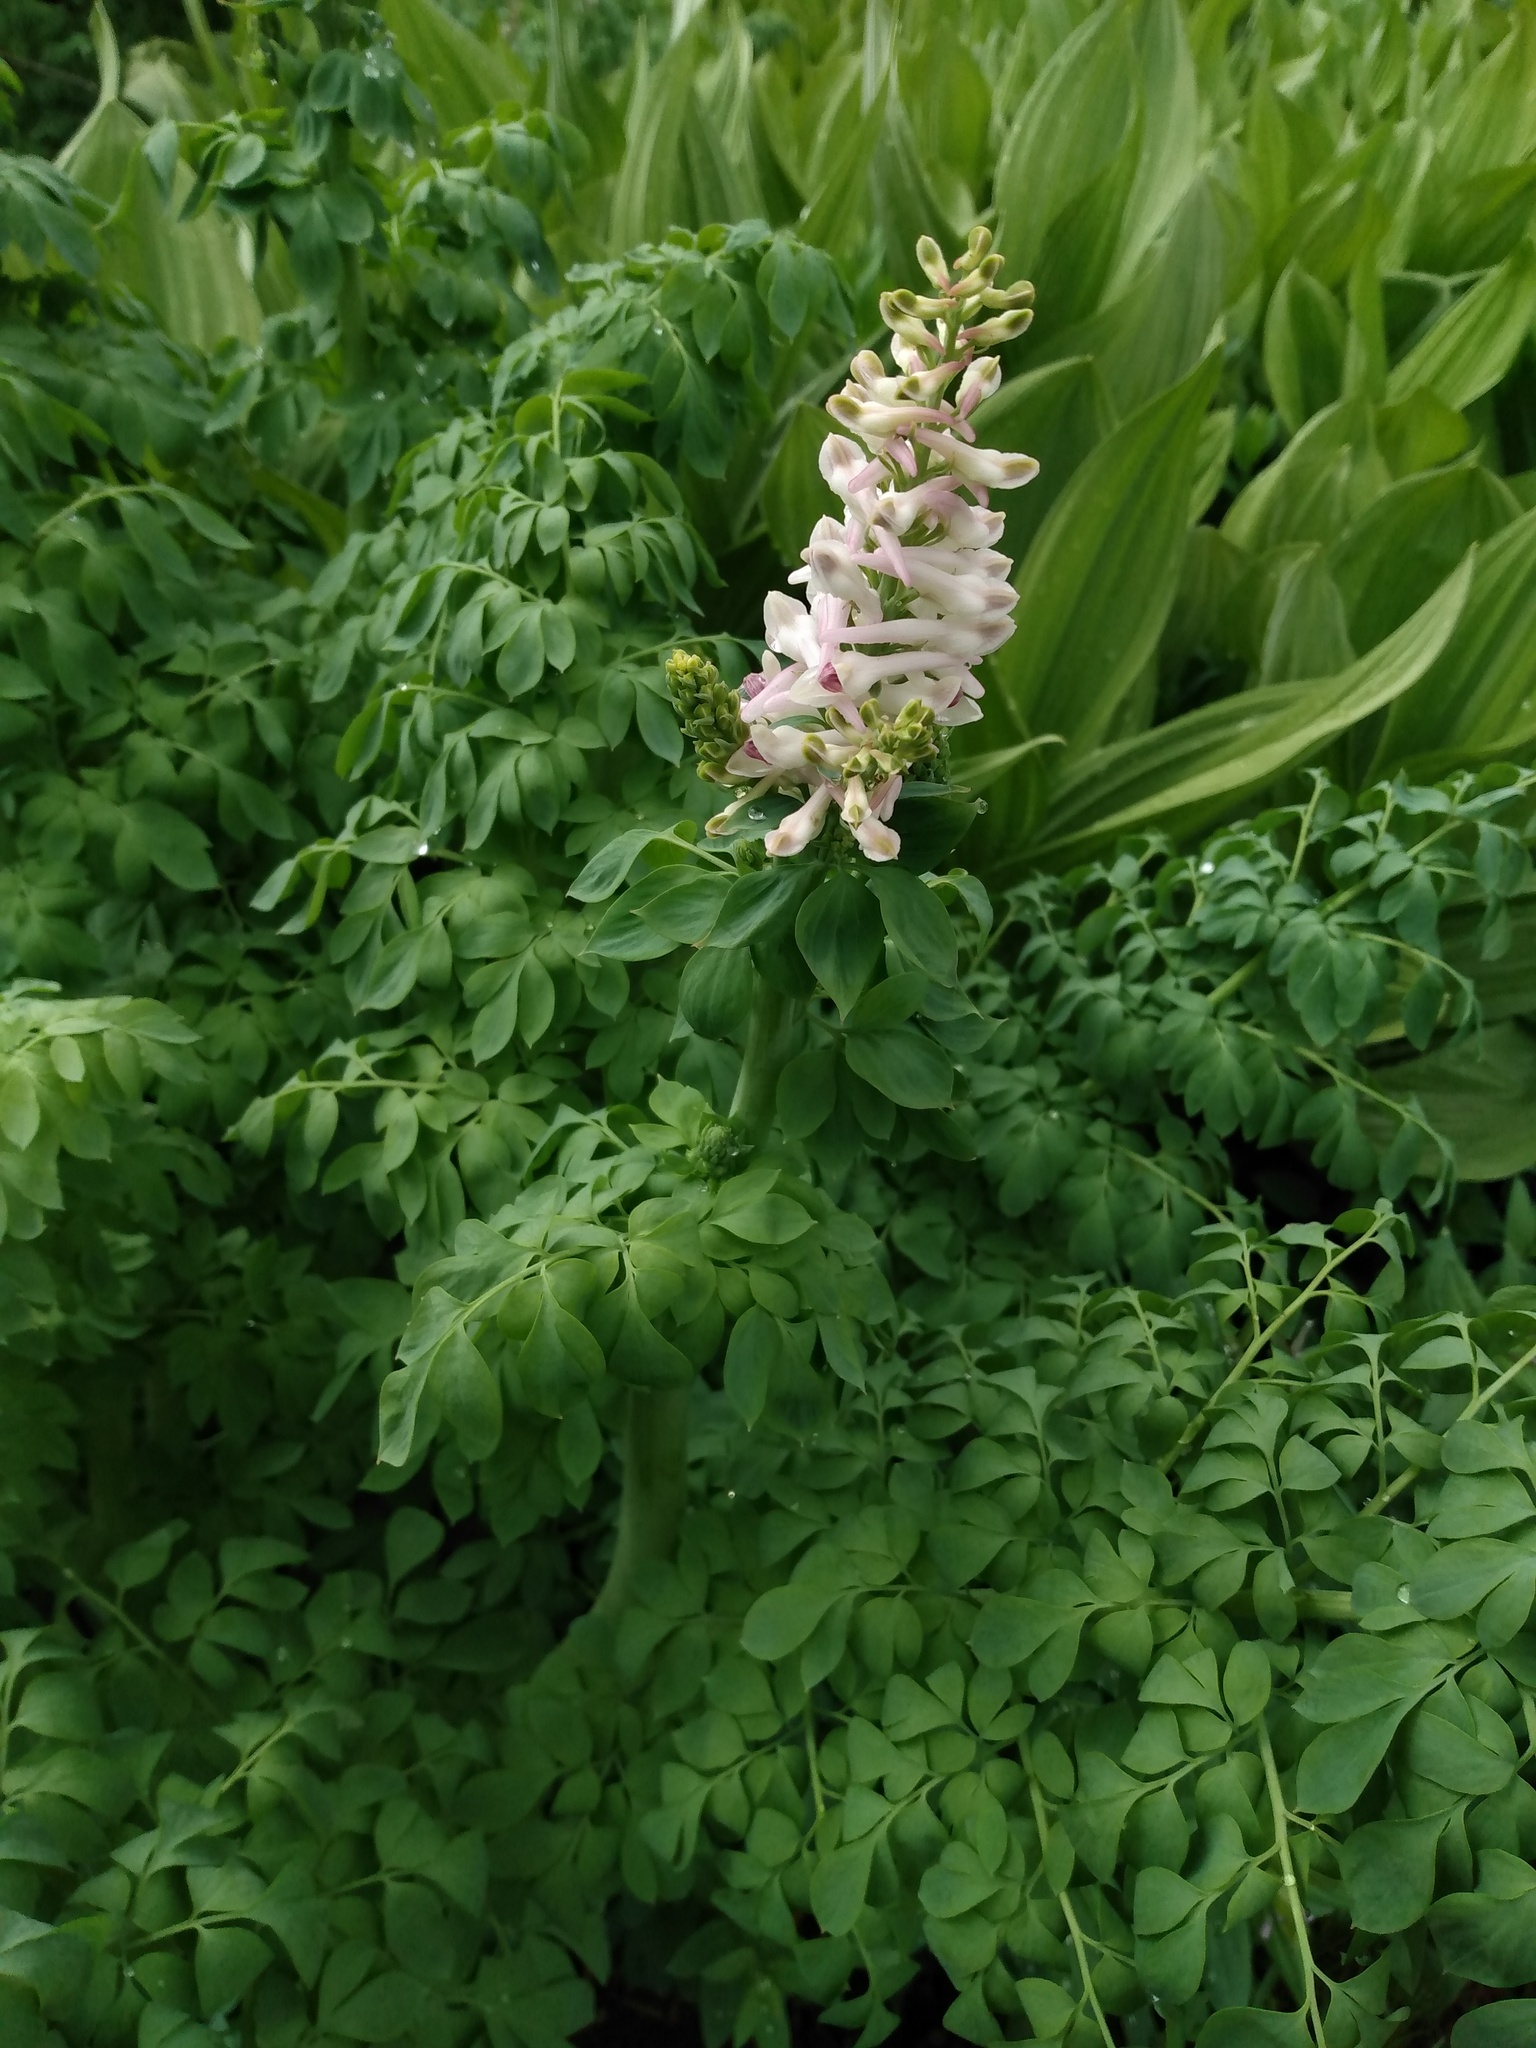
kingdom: Plantae
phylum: Tracheophyta
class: Magnoliopsida
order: Ranunculales
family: Papaveraceae
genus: Corydalis
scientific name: Corydalis caseana
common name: Fitweed
